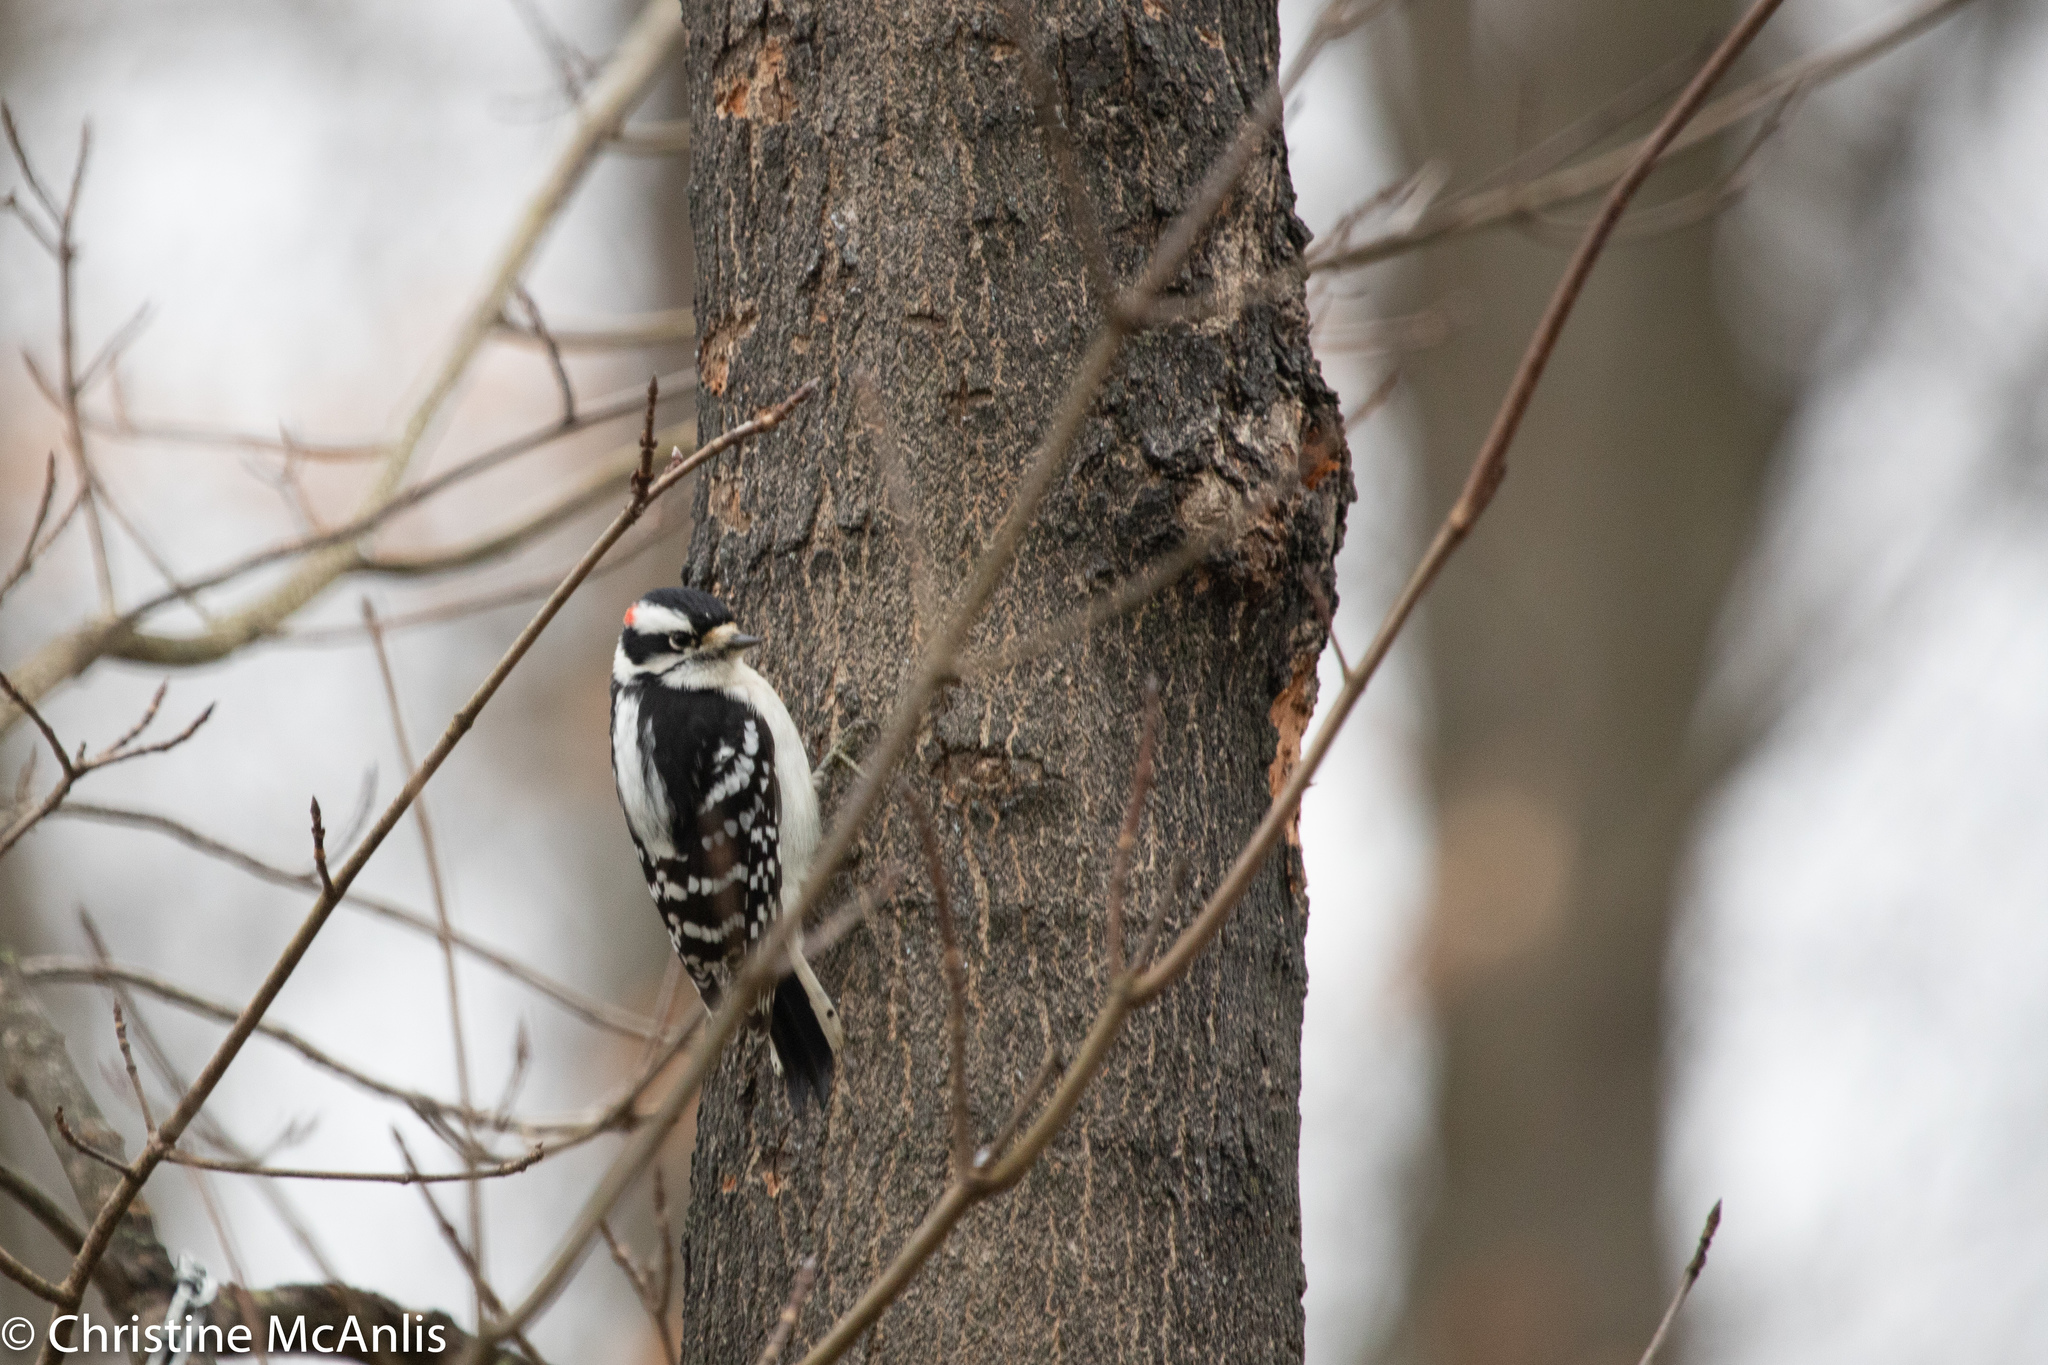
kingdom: Animalia
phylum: Chordata
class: Aves
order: Piciformes
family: Picidae
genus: Dryobates
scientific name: Dryobates pubescens
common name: Downy woodpecker
